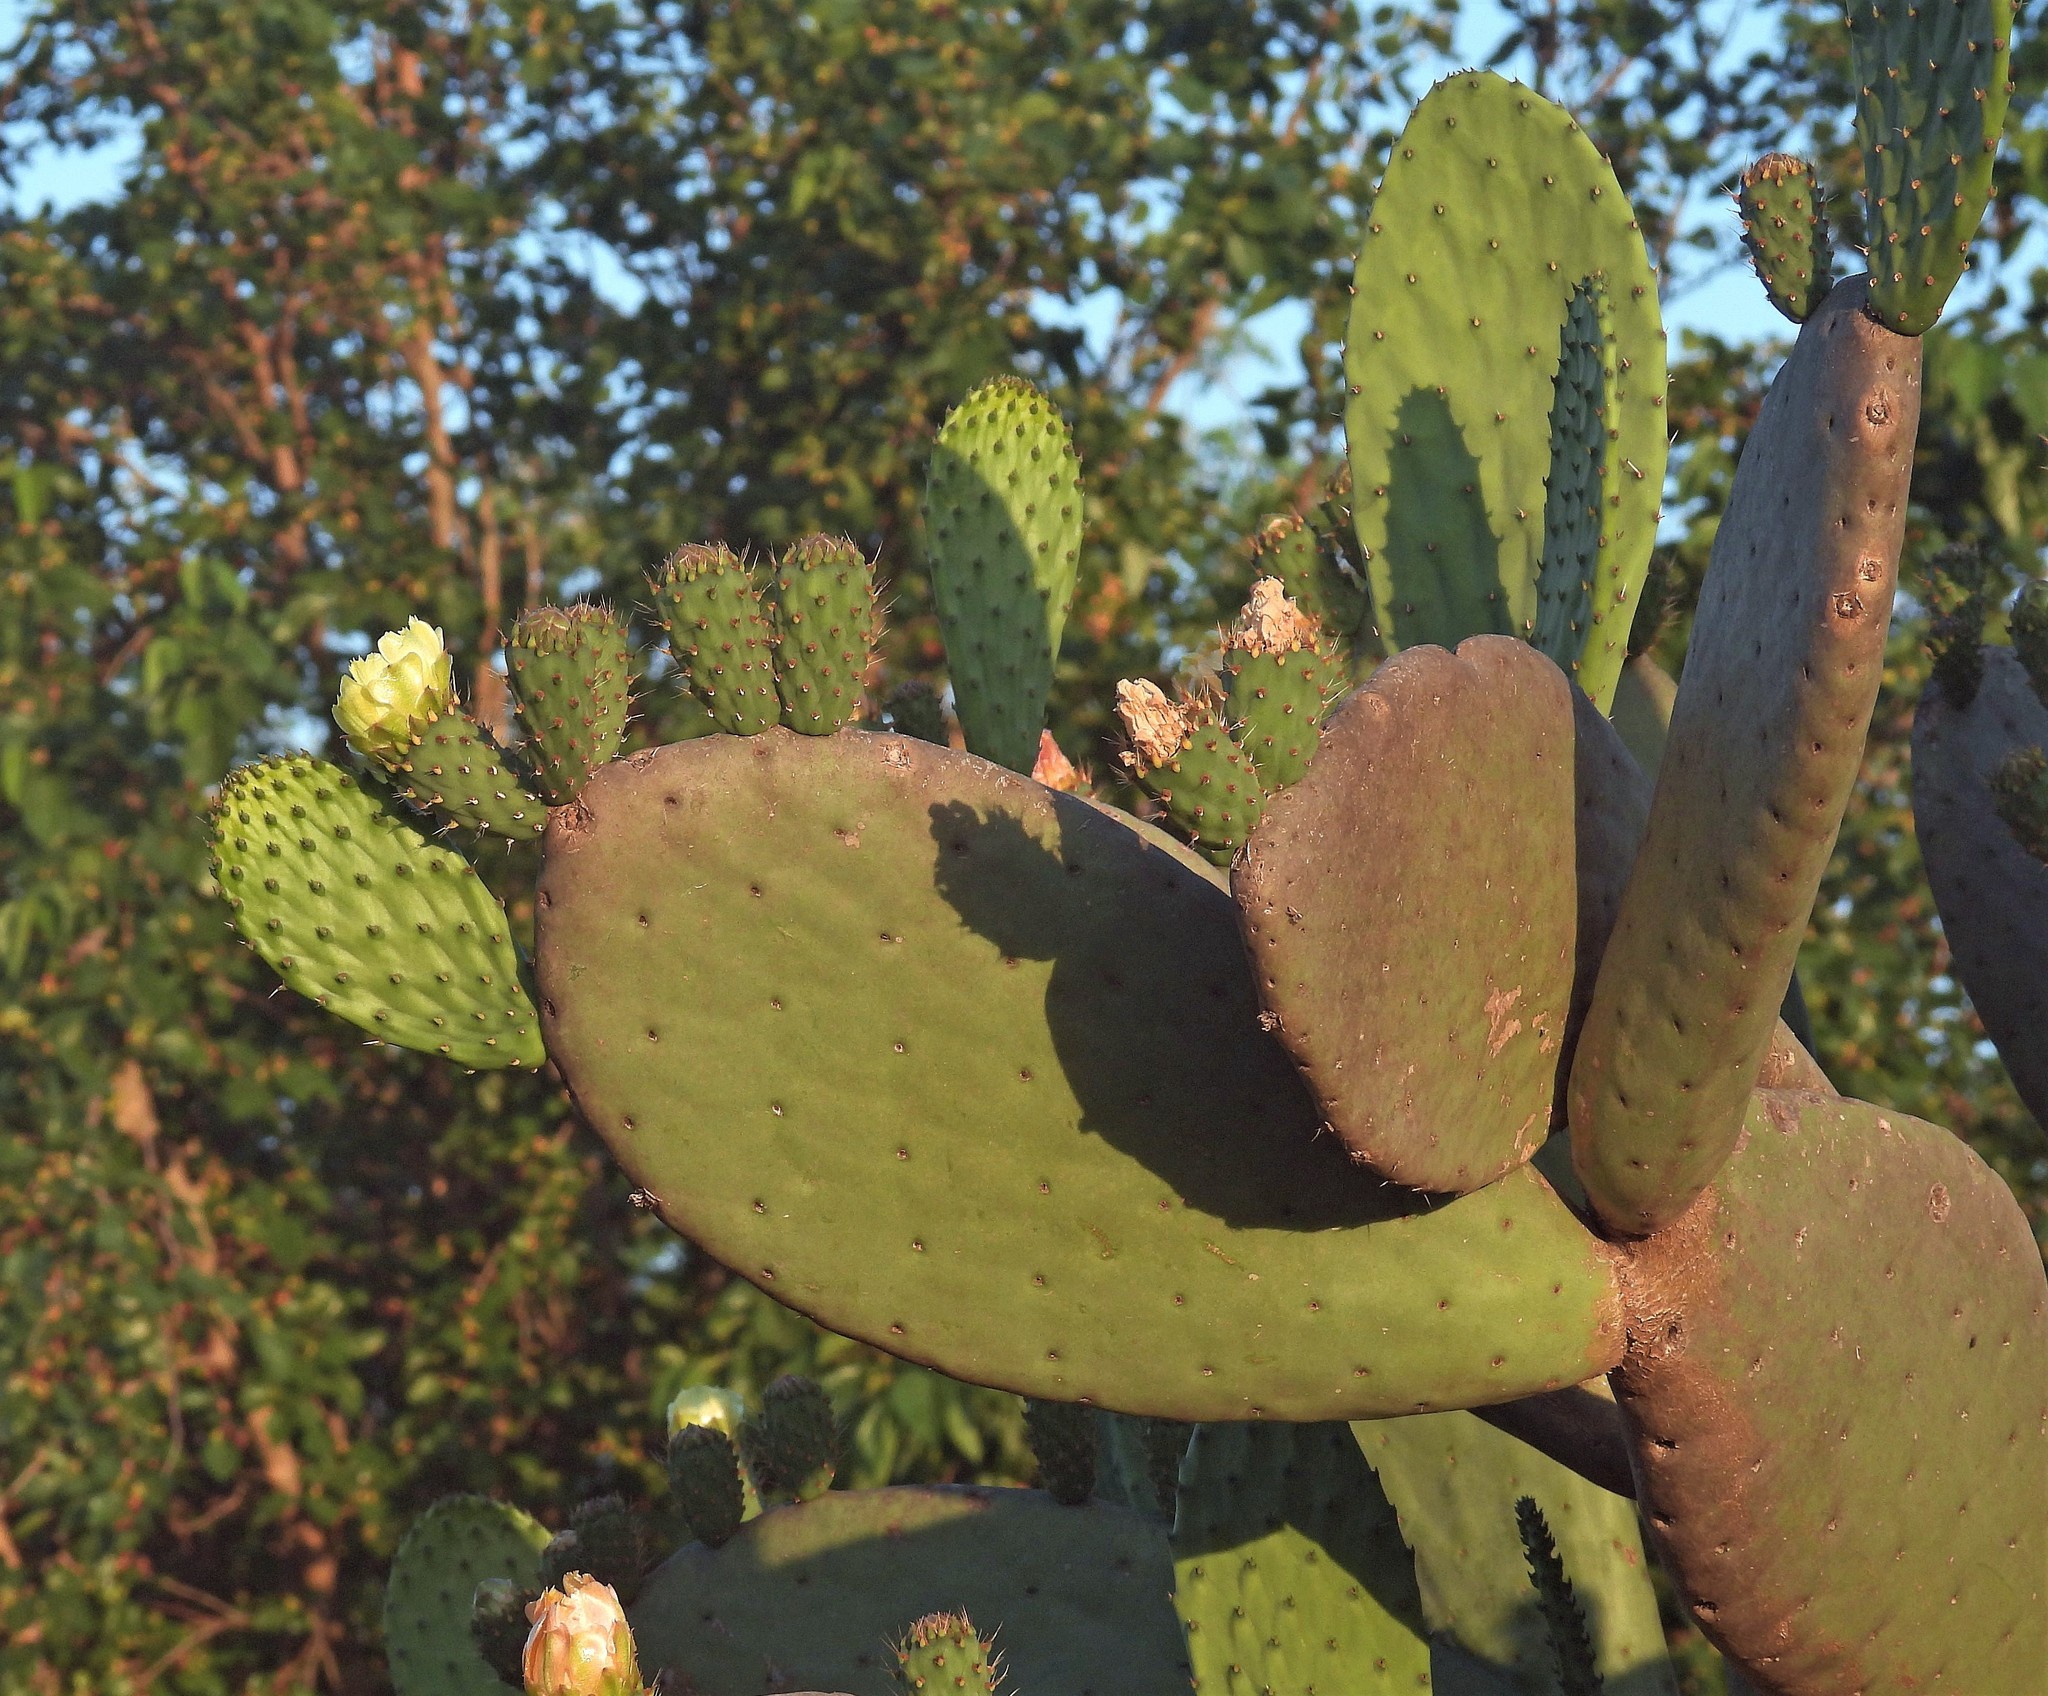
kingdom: Plantae
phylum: Tracheophyta
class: Magnoliopsida
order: Caryophyllales
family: Cactaceae
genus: Opuntia
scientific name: Opuntia ficus-indica
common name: Barbary fig
